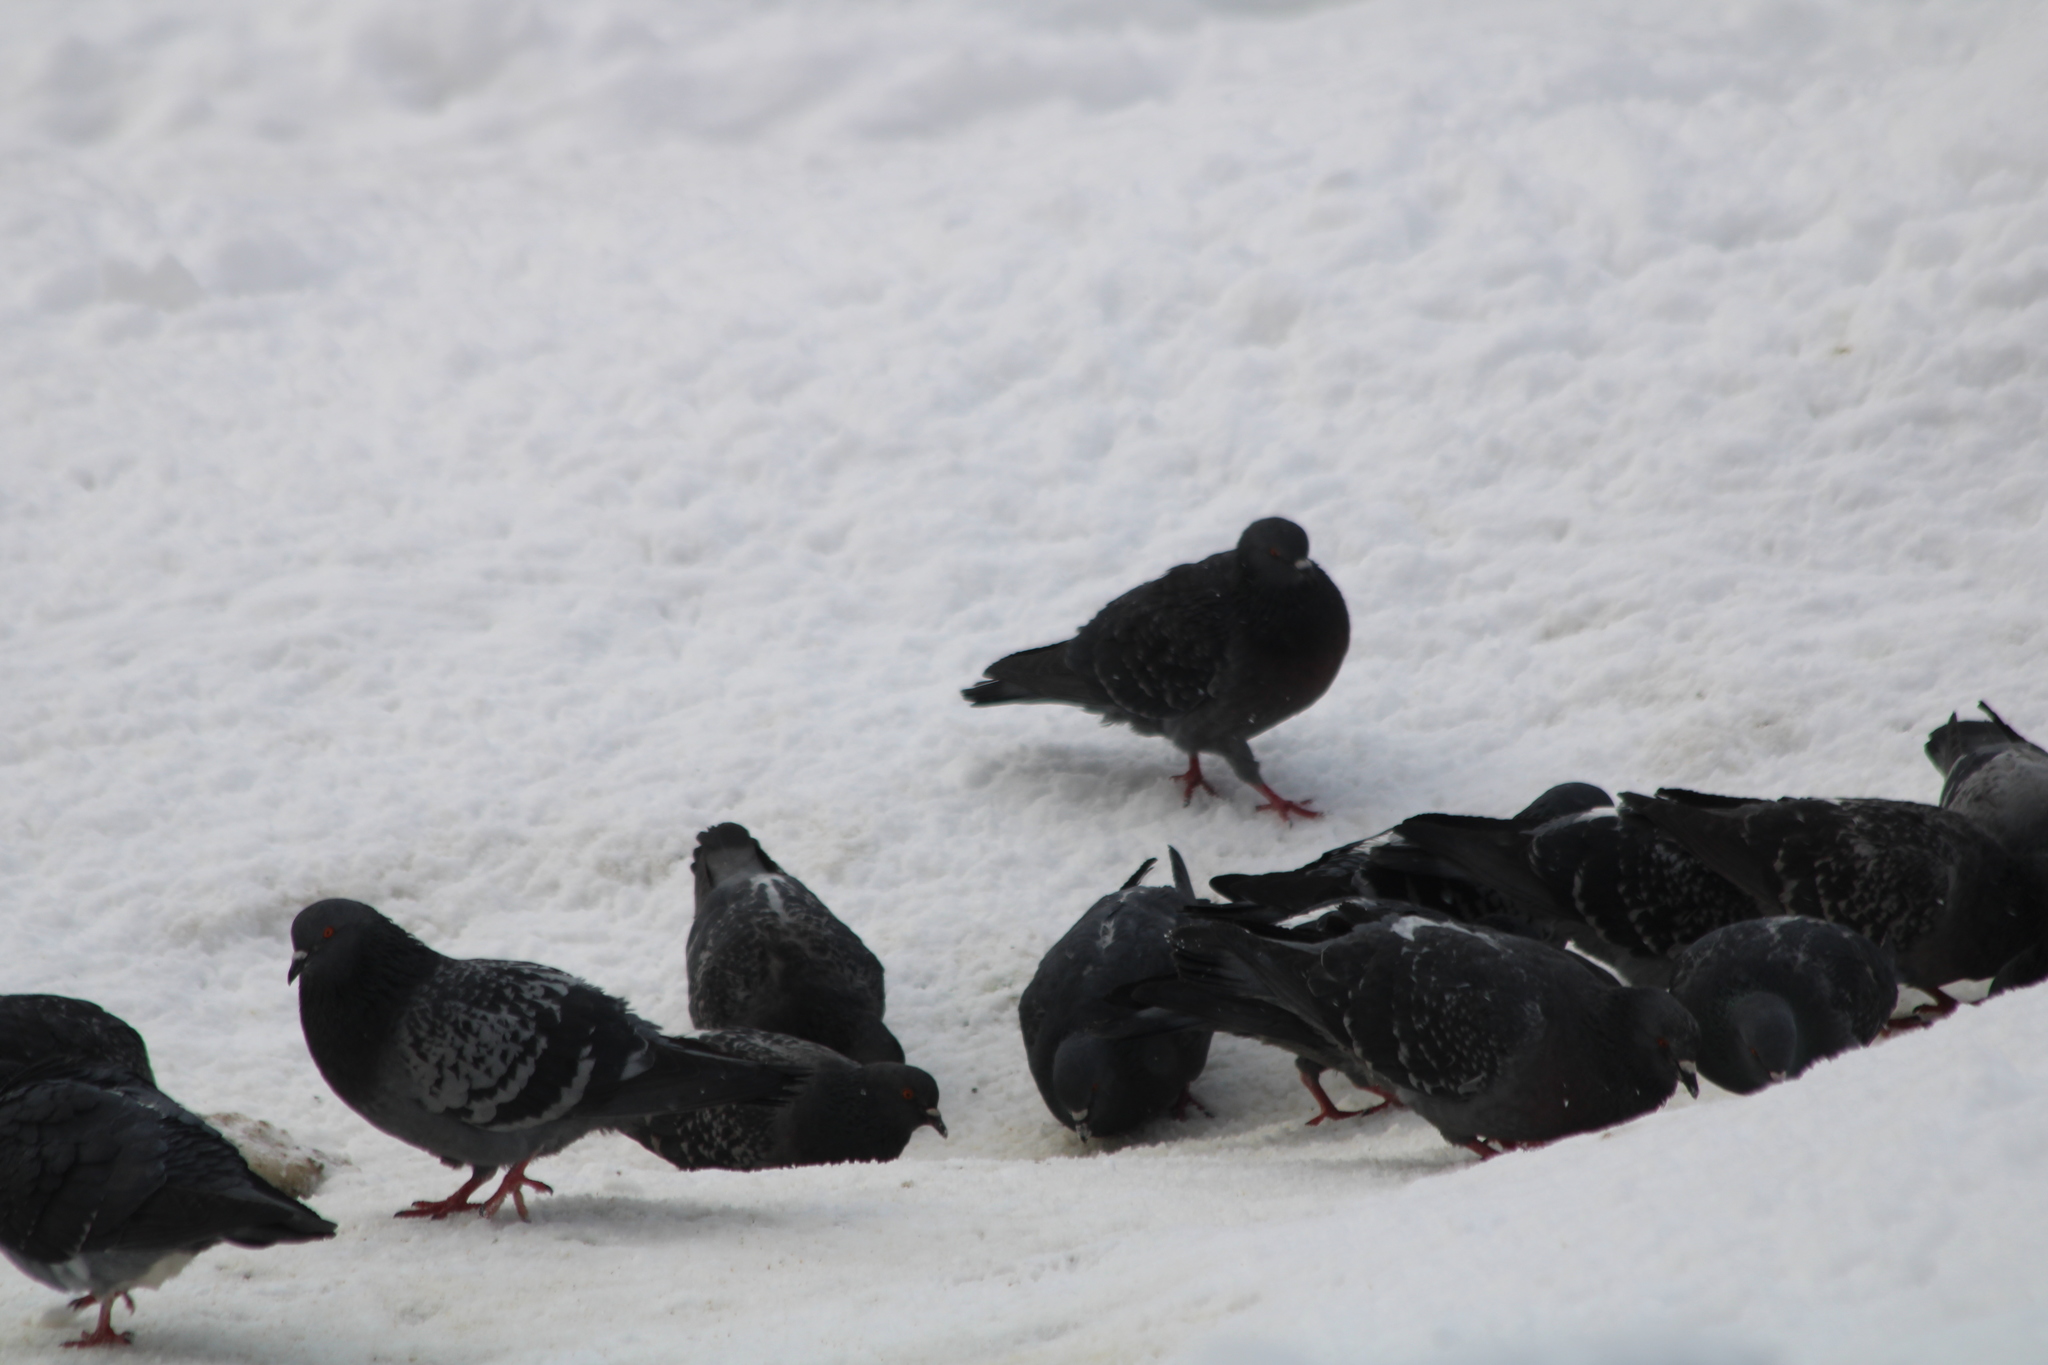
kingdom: Animalia
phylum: Chordata
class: Aves
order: Columbiformes
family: Columbidae
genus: Columba
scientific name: Columba livia
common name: Rock pigeon
